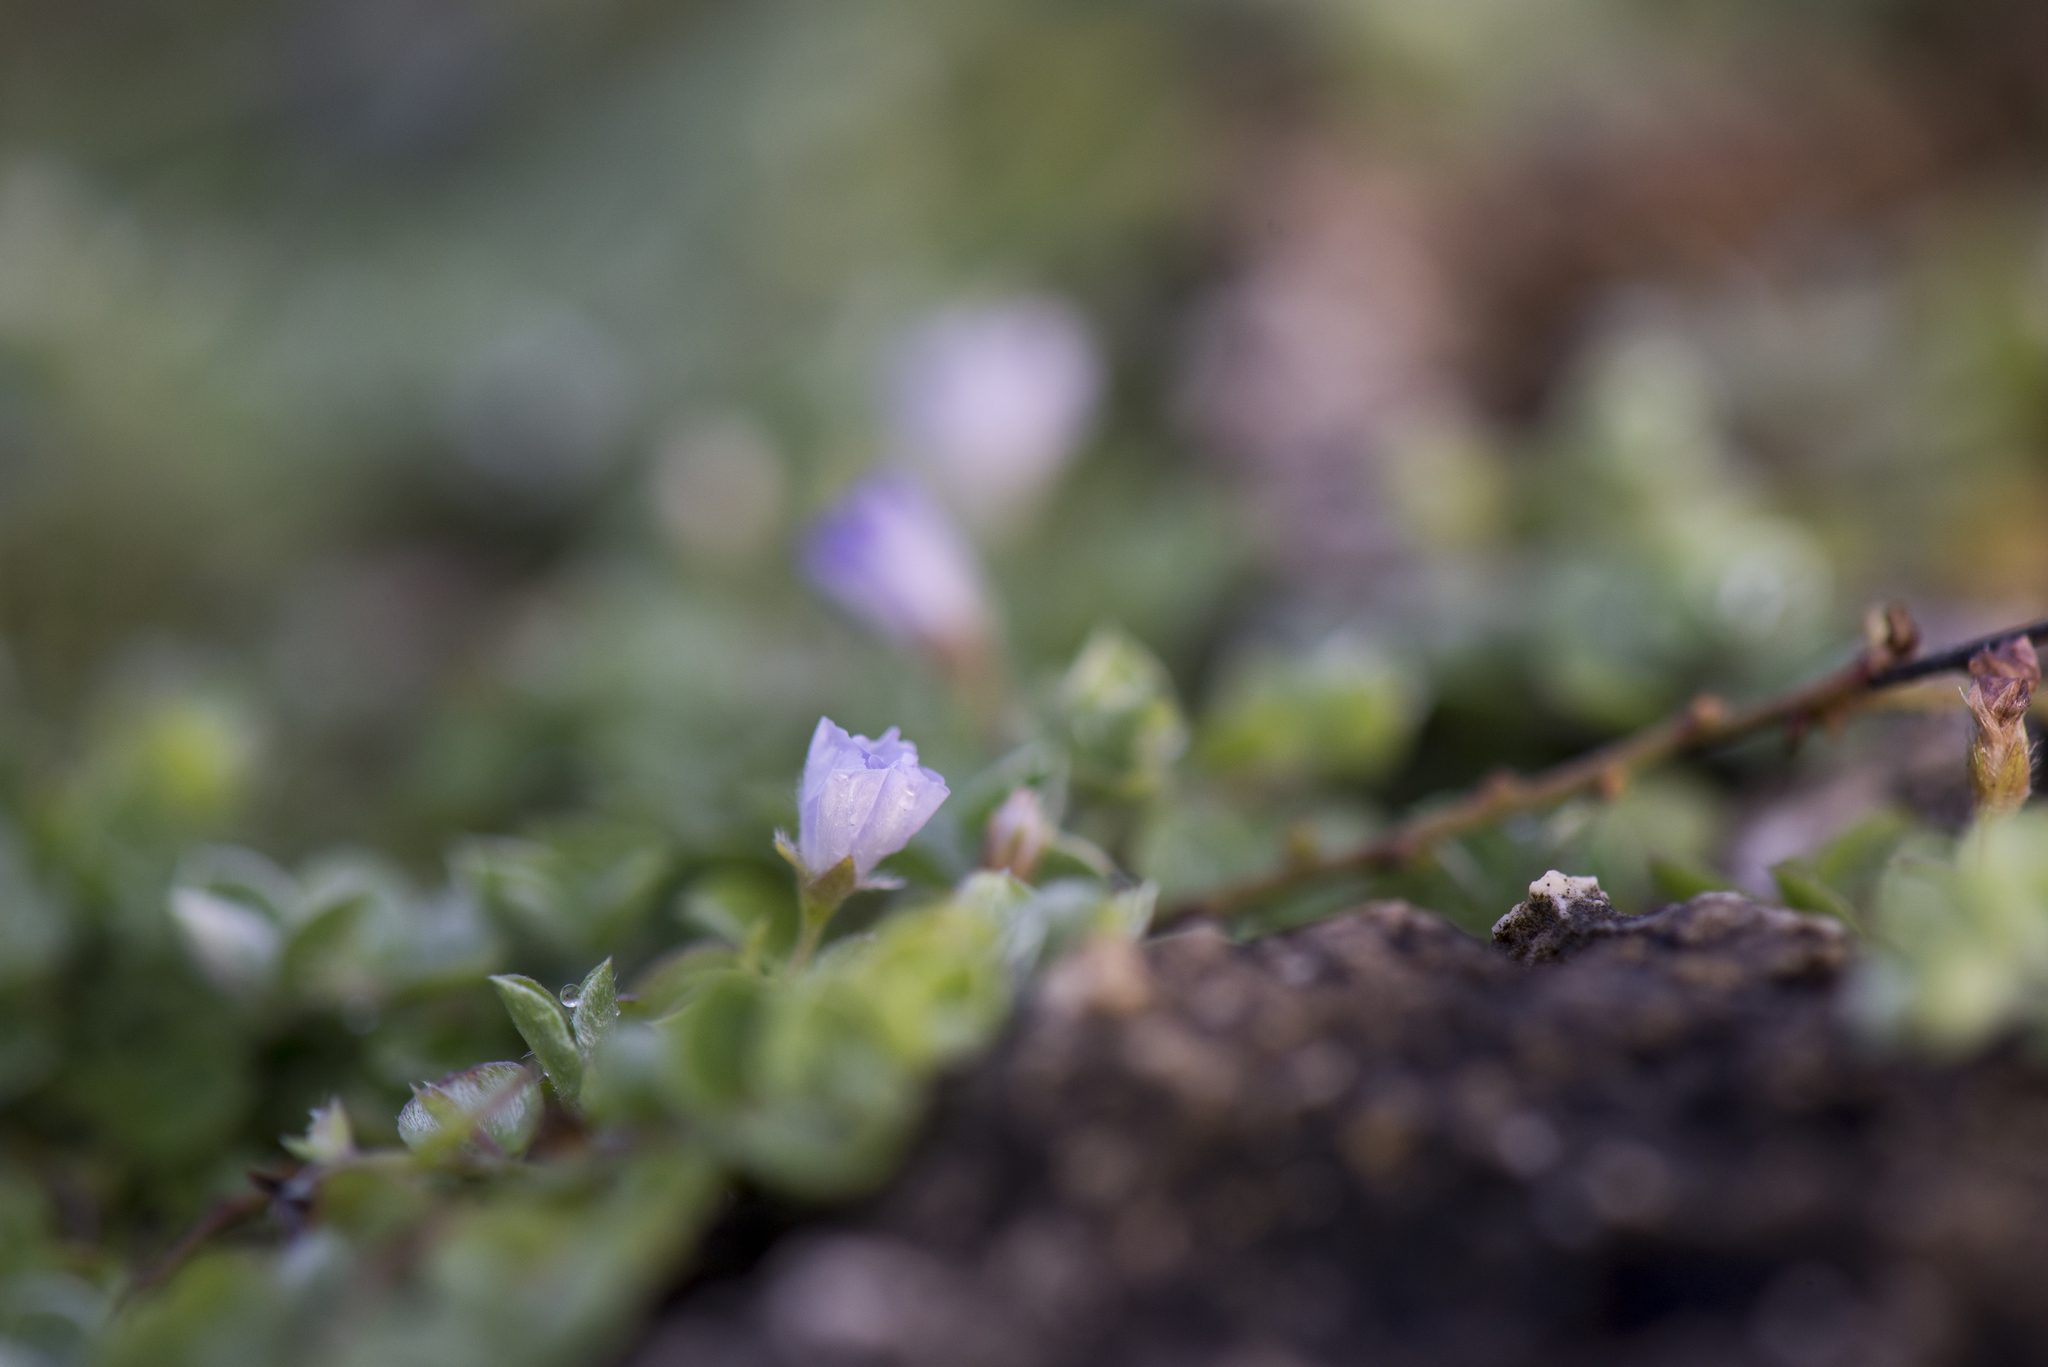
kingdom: Plantae
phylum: Tracheophyta
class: Magnoliopsida
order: Solanales
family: Convolvulaceae
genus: Evolvulus
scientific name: Evolvulus alsinoides
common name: Slender dwarf morning-glory
